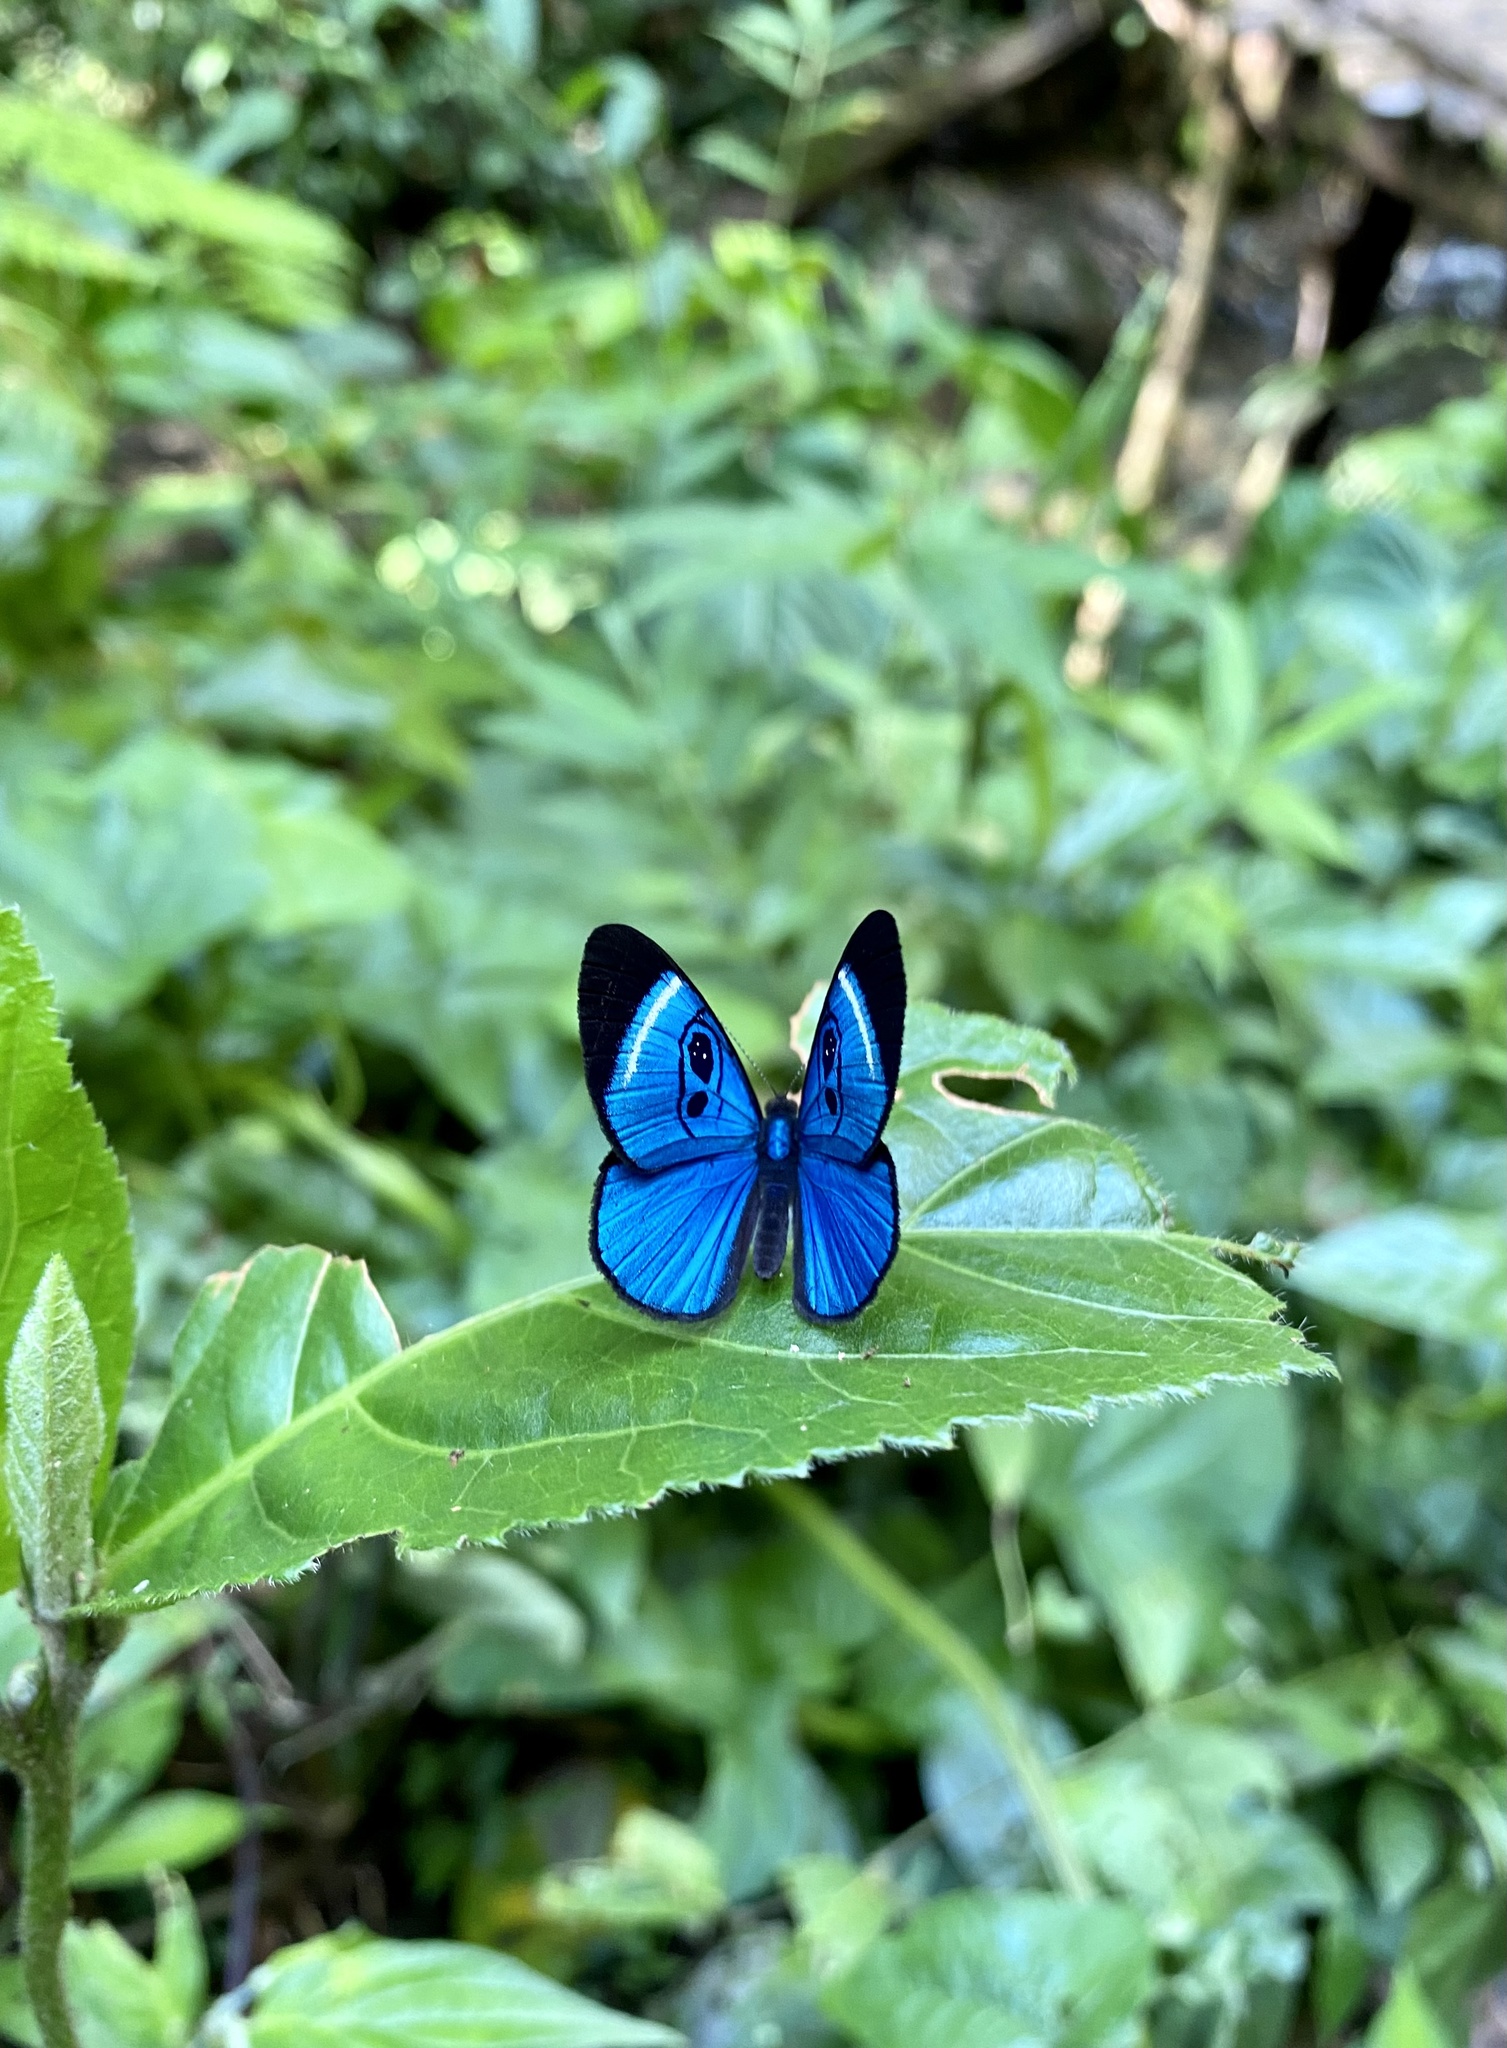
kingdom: Animalia
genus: Mesosemia
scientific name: Mesosemia loruhama
